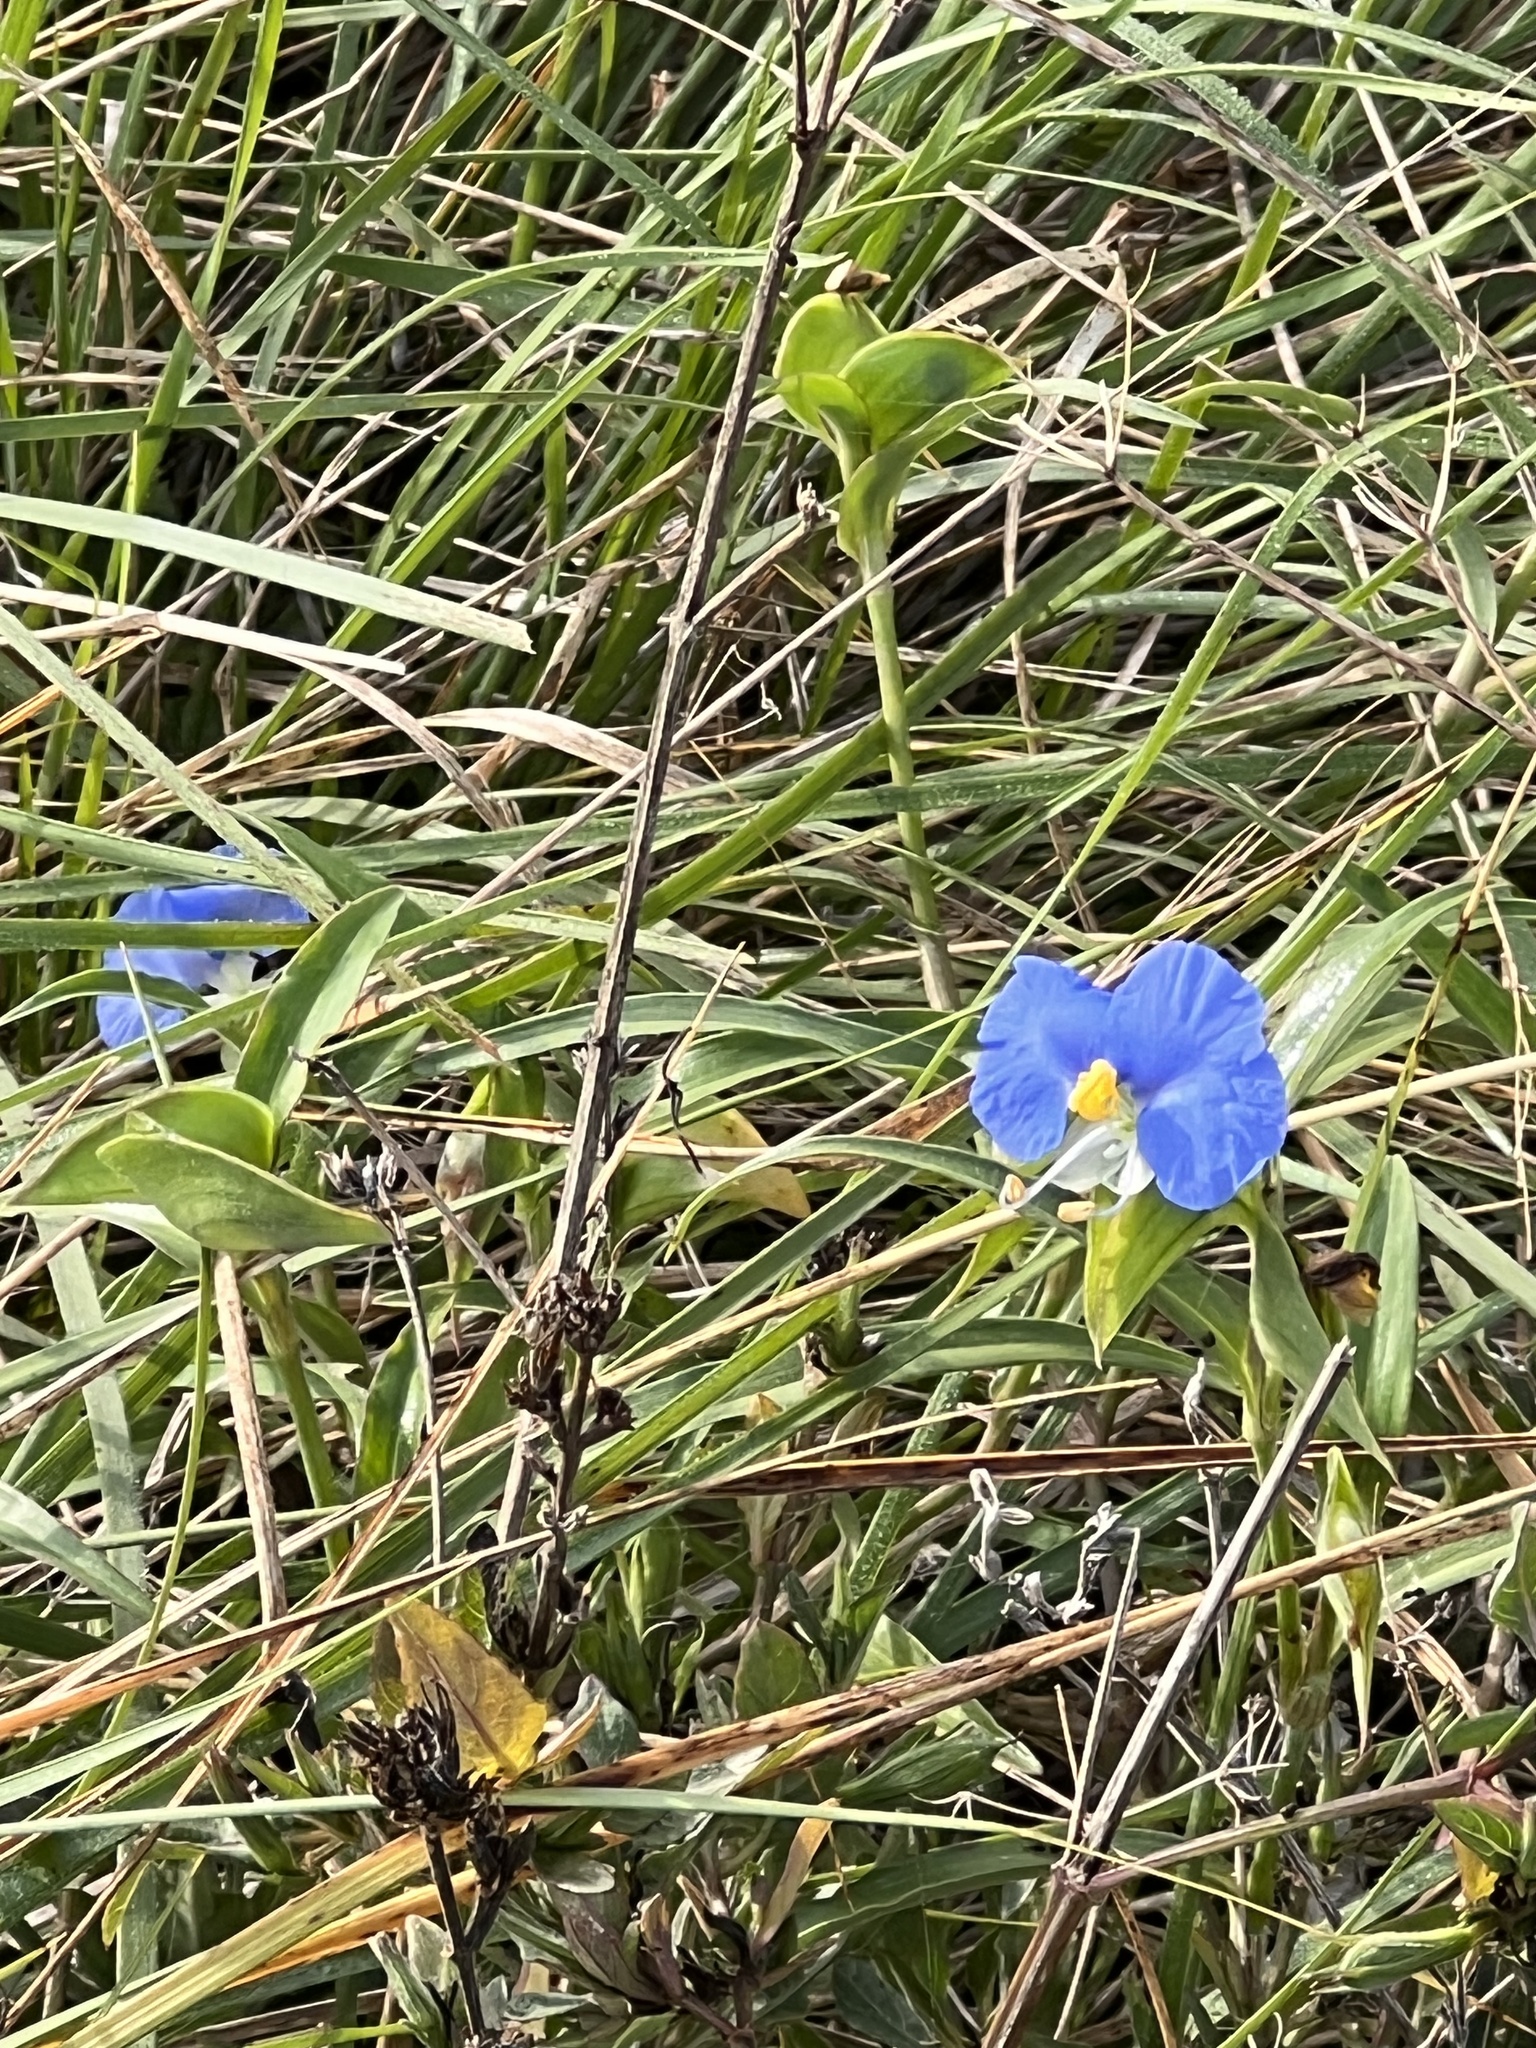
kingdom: Plantae
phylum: Tracheophyta
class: Liliopsida
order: Commelinales
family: Commelinaceae
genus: Commelina
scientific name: Commelina erecta
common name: Blousel blommetjie
